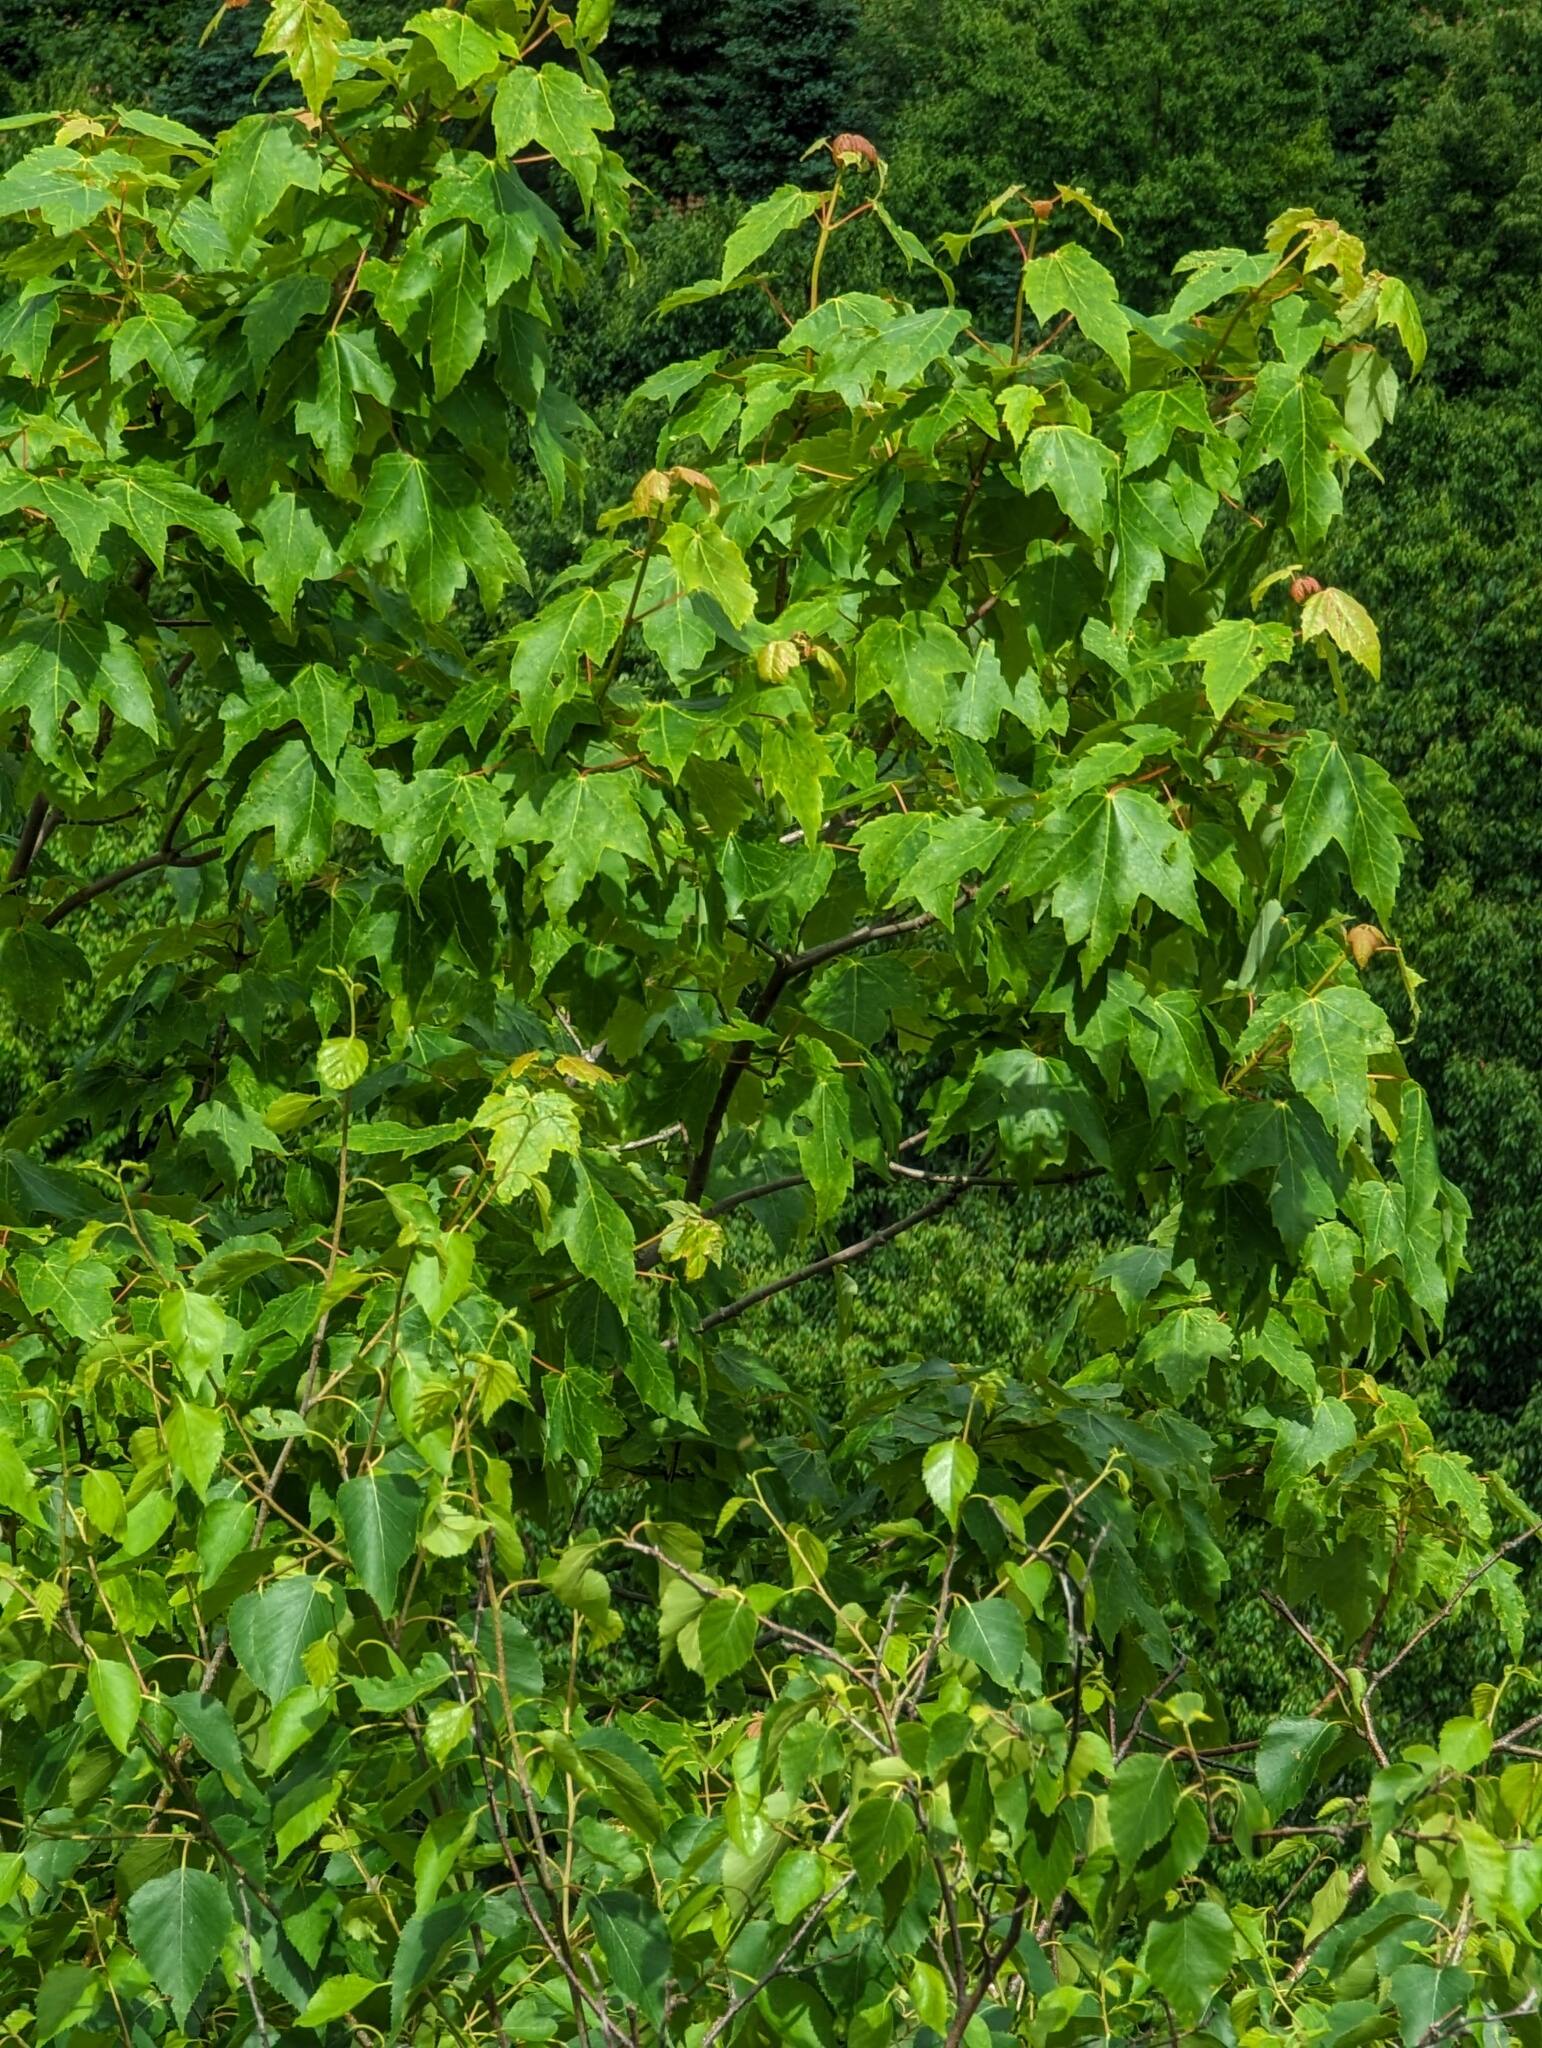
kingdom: Plantae
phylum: Tracheophyta
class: Magnoliopsida
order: Sapindales
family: Sapindaceae
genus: Acer
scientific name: Acer rubrum
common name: Red maple
